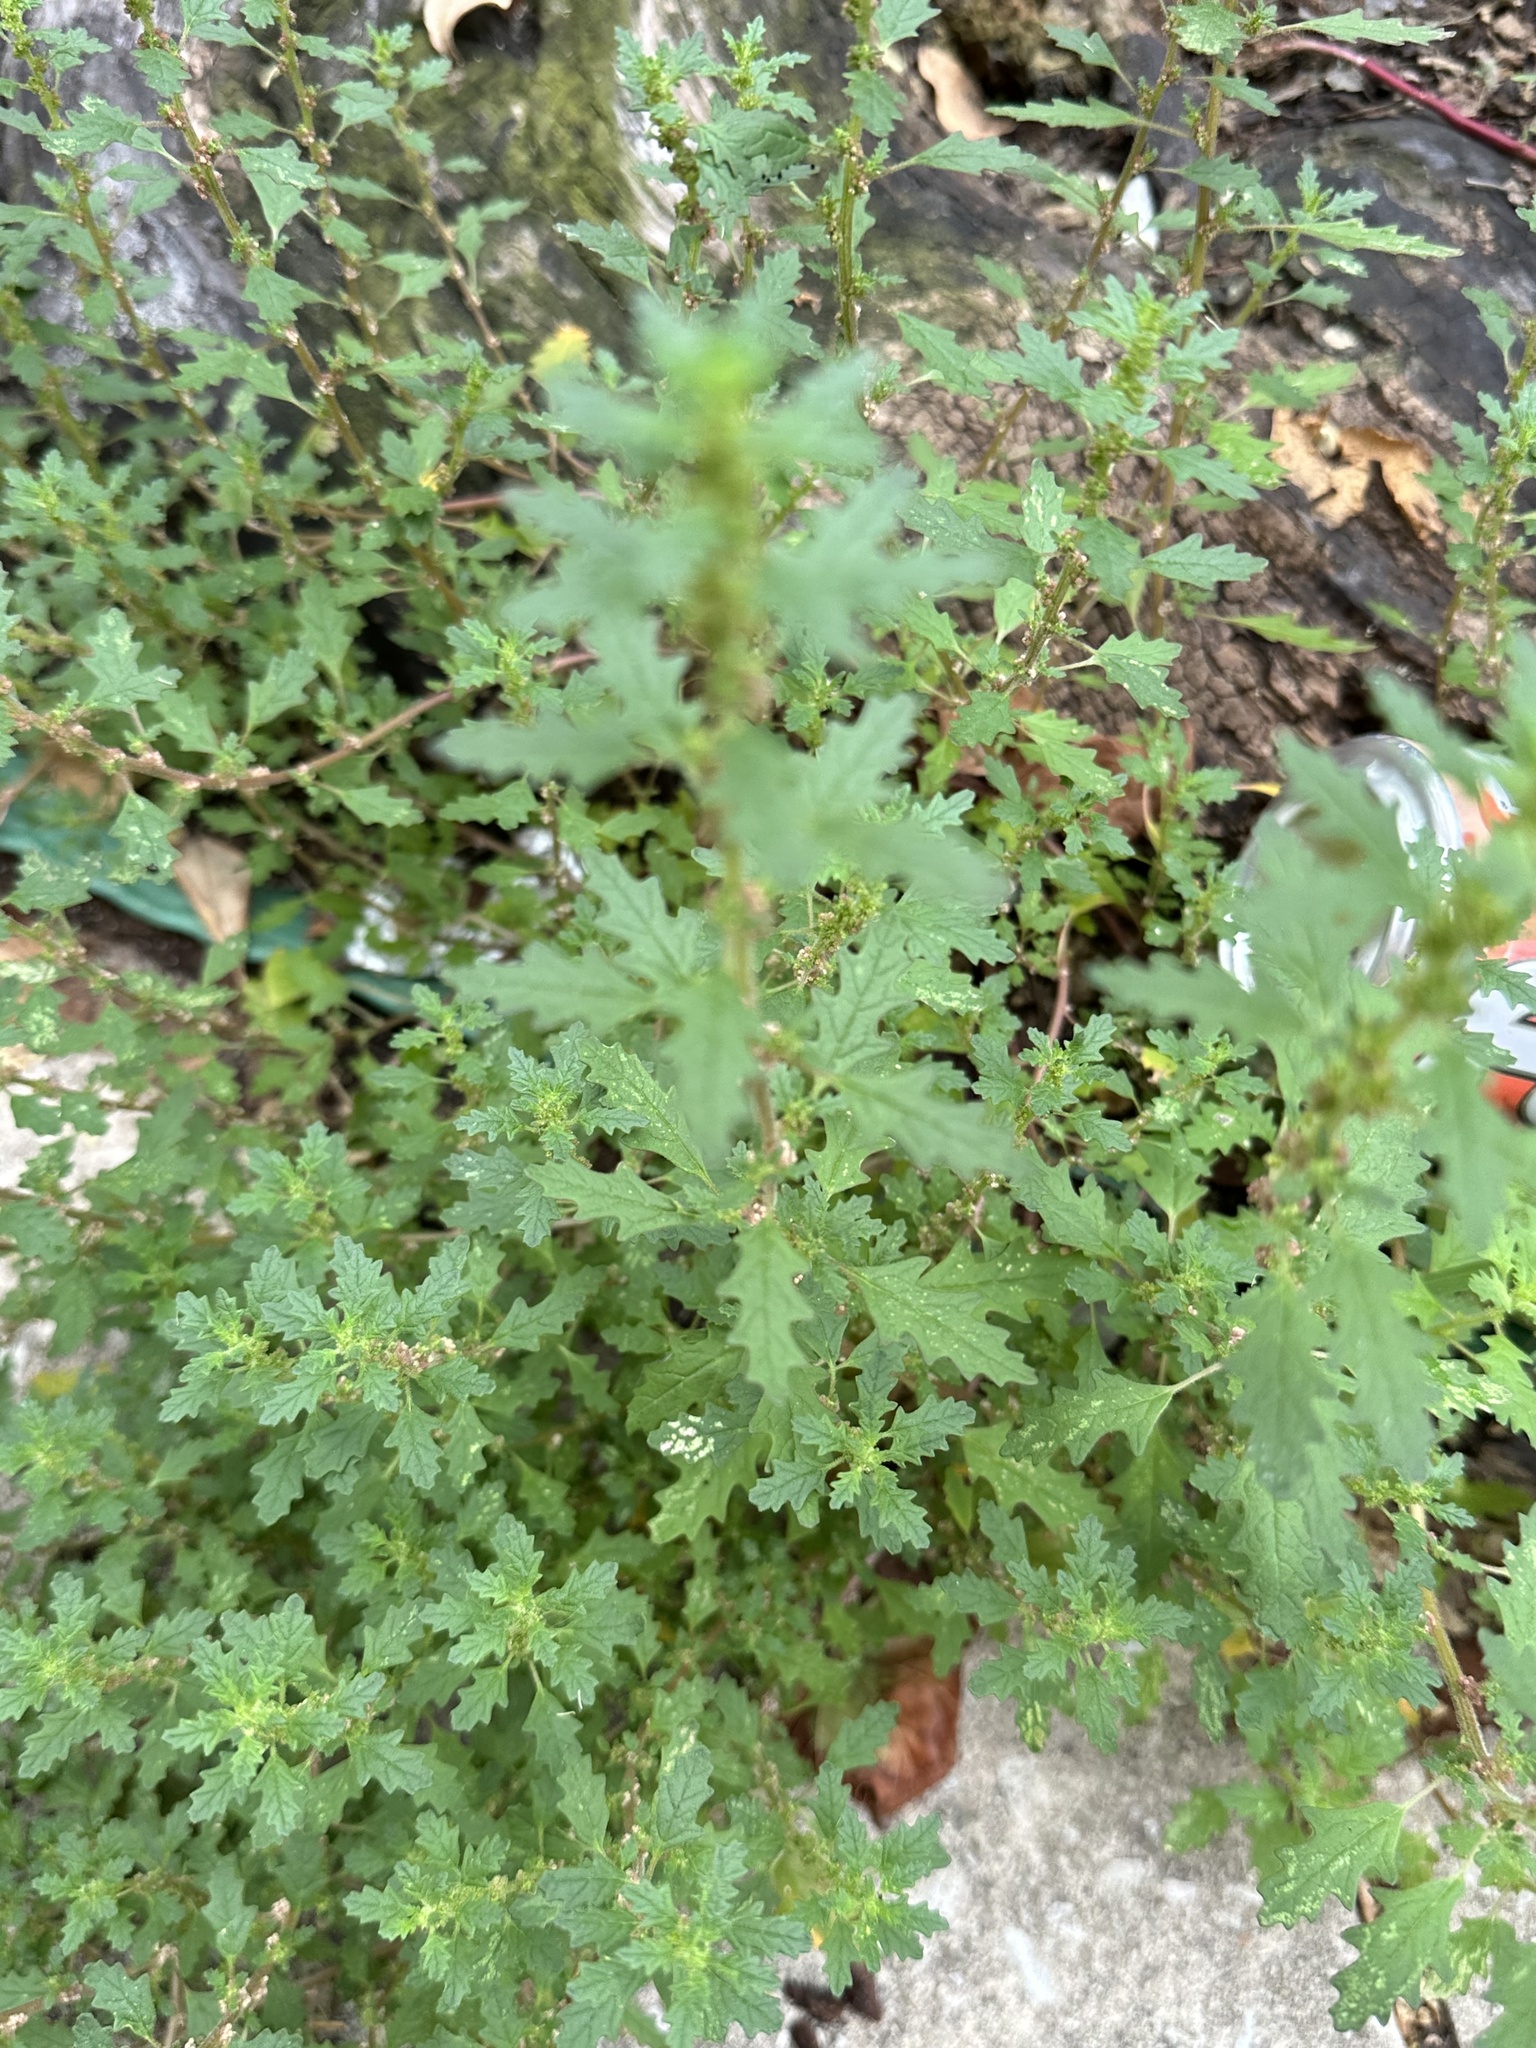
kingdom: Plantae
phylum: Tracheophyta
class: Magnoliopsida
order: Caryophyllales
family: Amaranthaceae
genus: Dysphania
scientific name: Dysphania pumilio
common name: Clammy goosefoot
